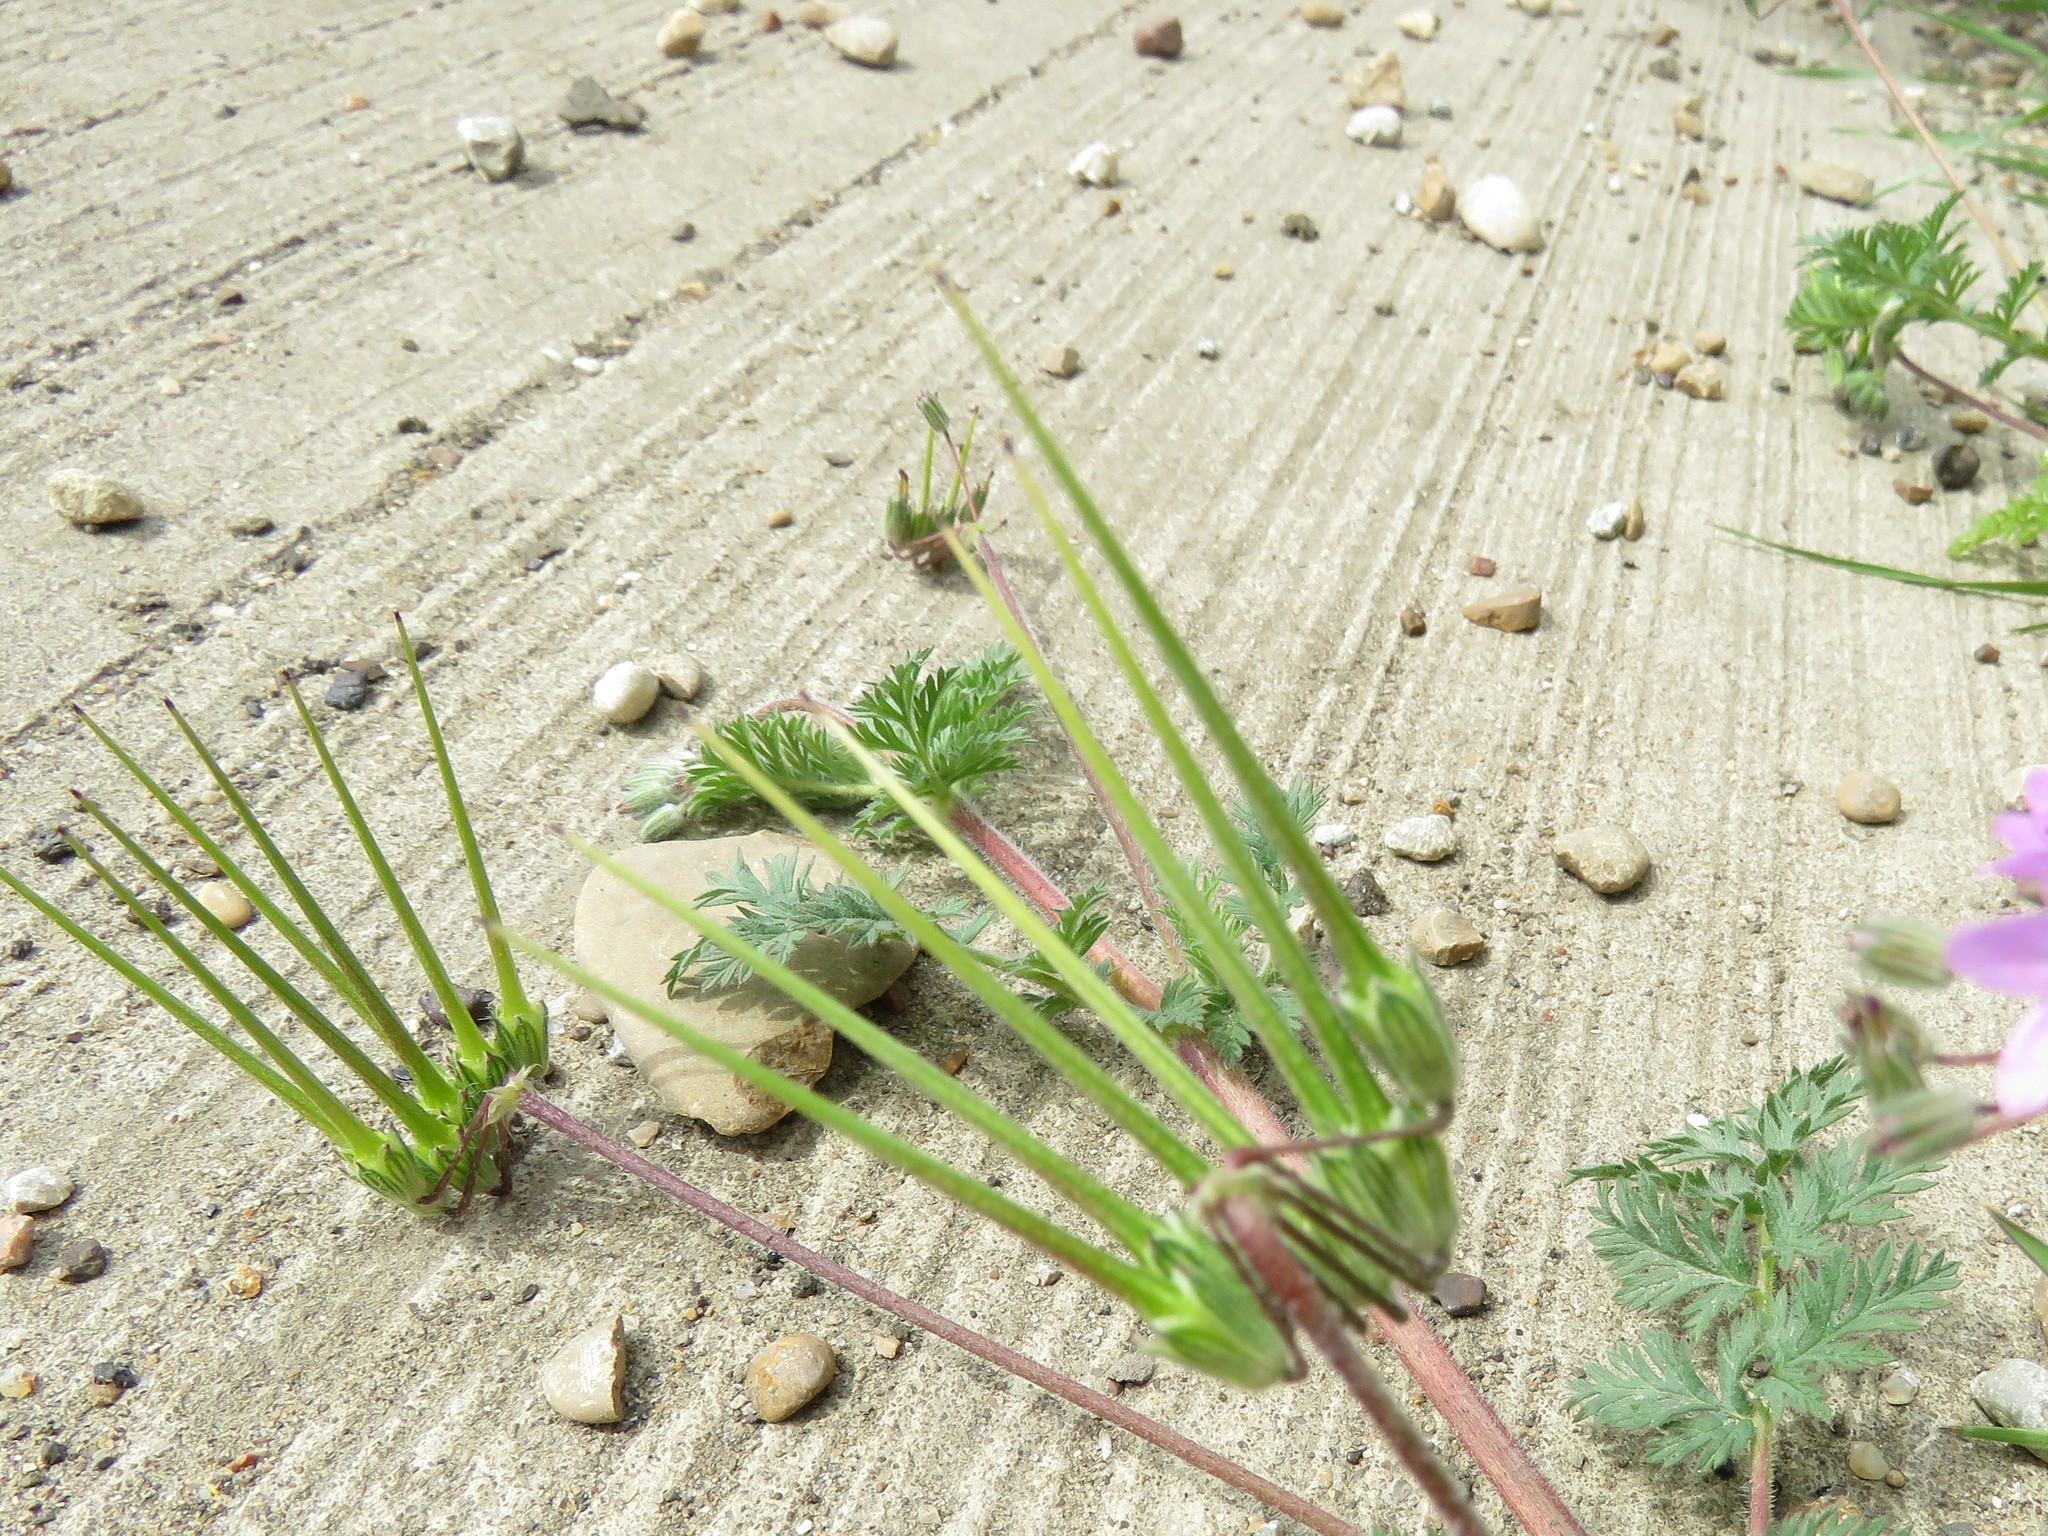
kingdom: Plantae
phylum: Tracheophyta
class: Magnoliopsida
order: Geraniales
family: Geraniaceae
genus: Erodium
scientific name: Erodium cicutarium
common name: Common stork's-bill
